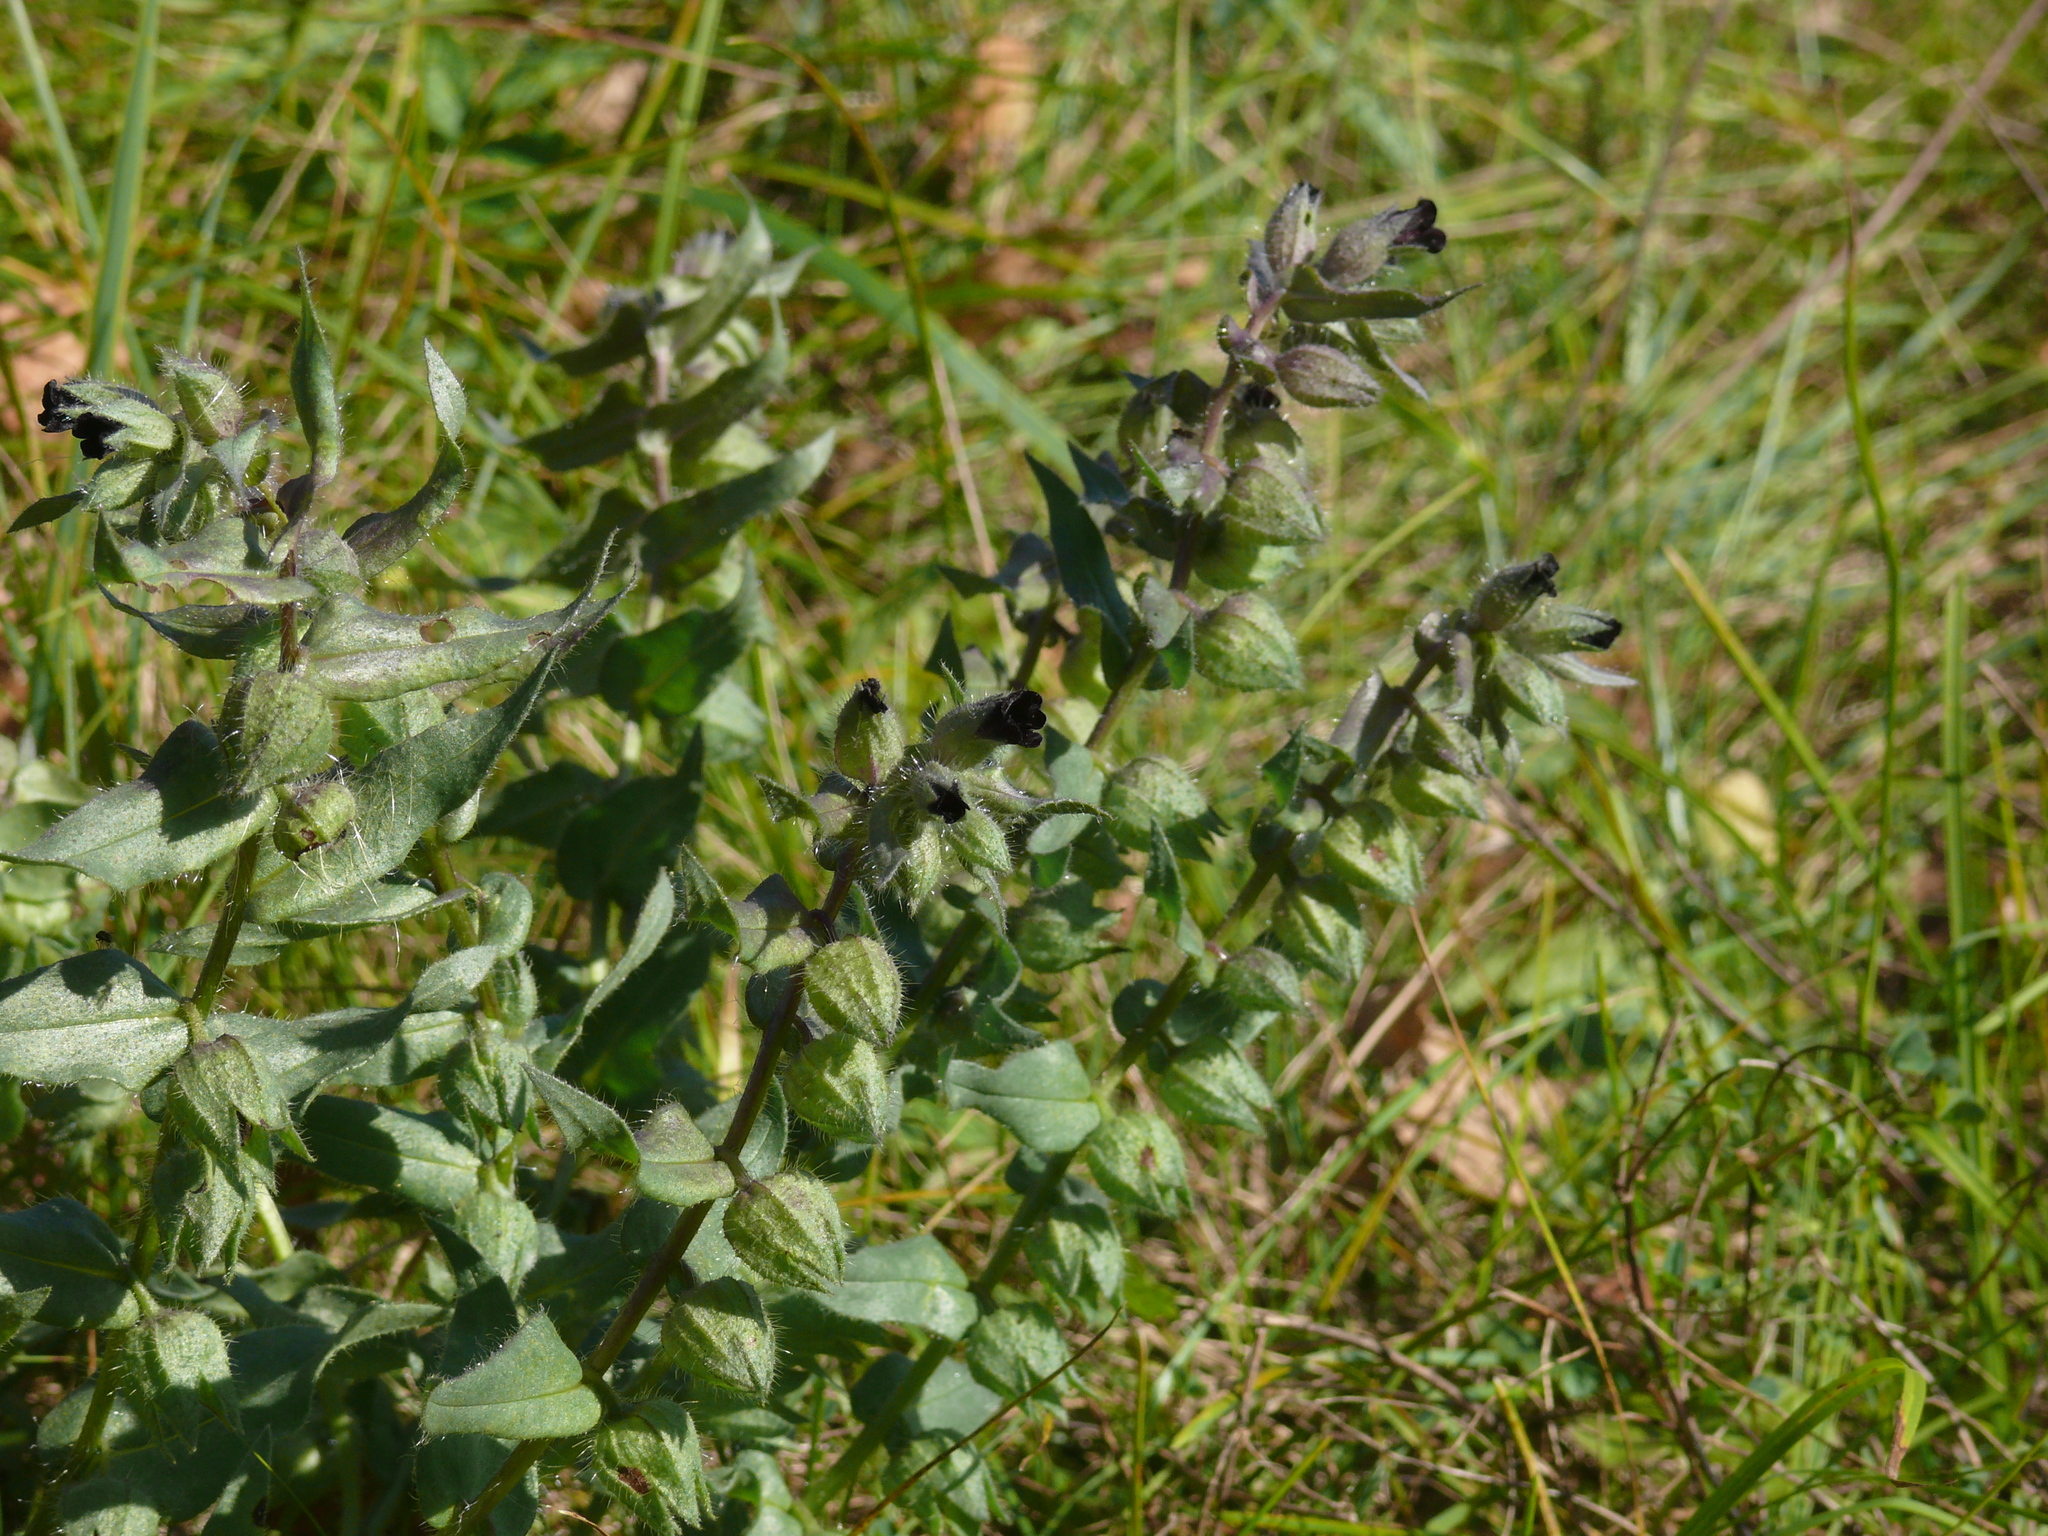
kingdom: Plantae
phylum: Tracheophyta
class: Magnoliopsida
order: Boraginales
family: Boraginaceae
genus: Nonea
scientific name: Nonea pulla
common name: Brown nonea
